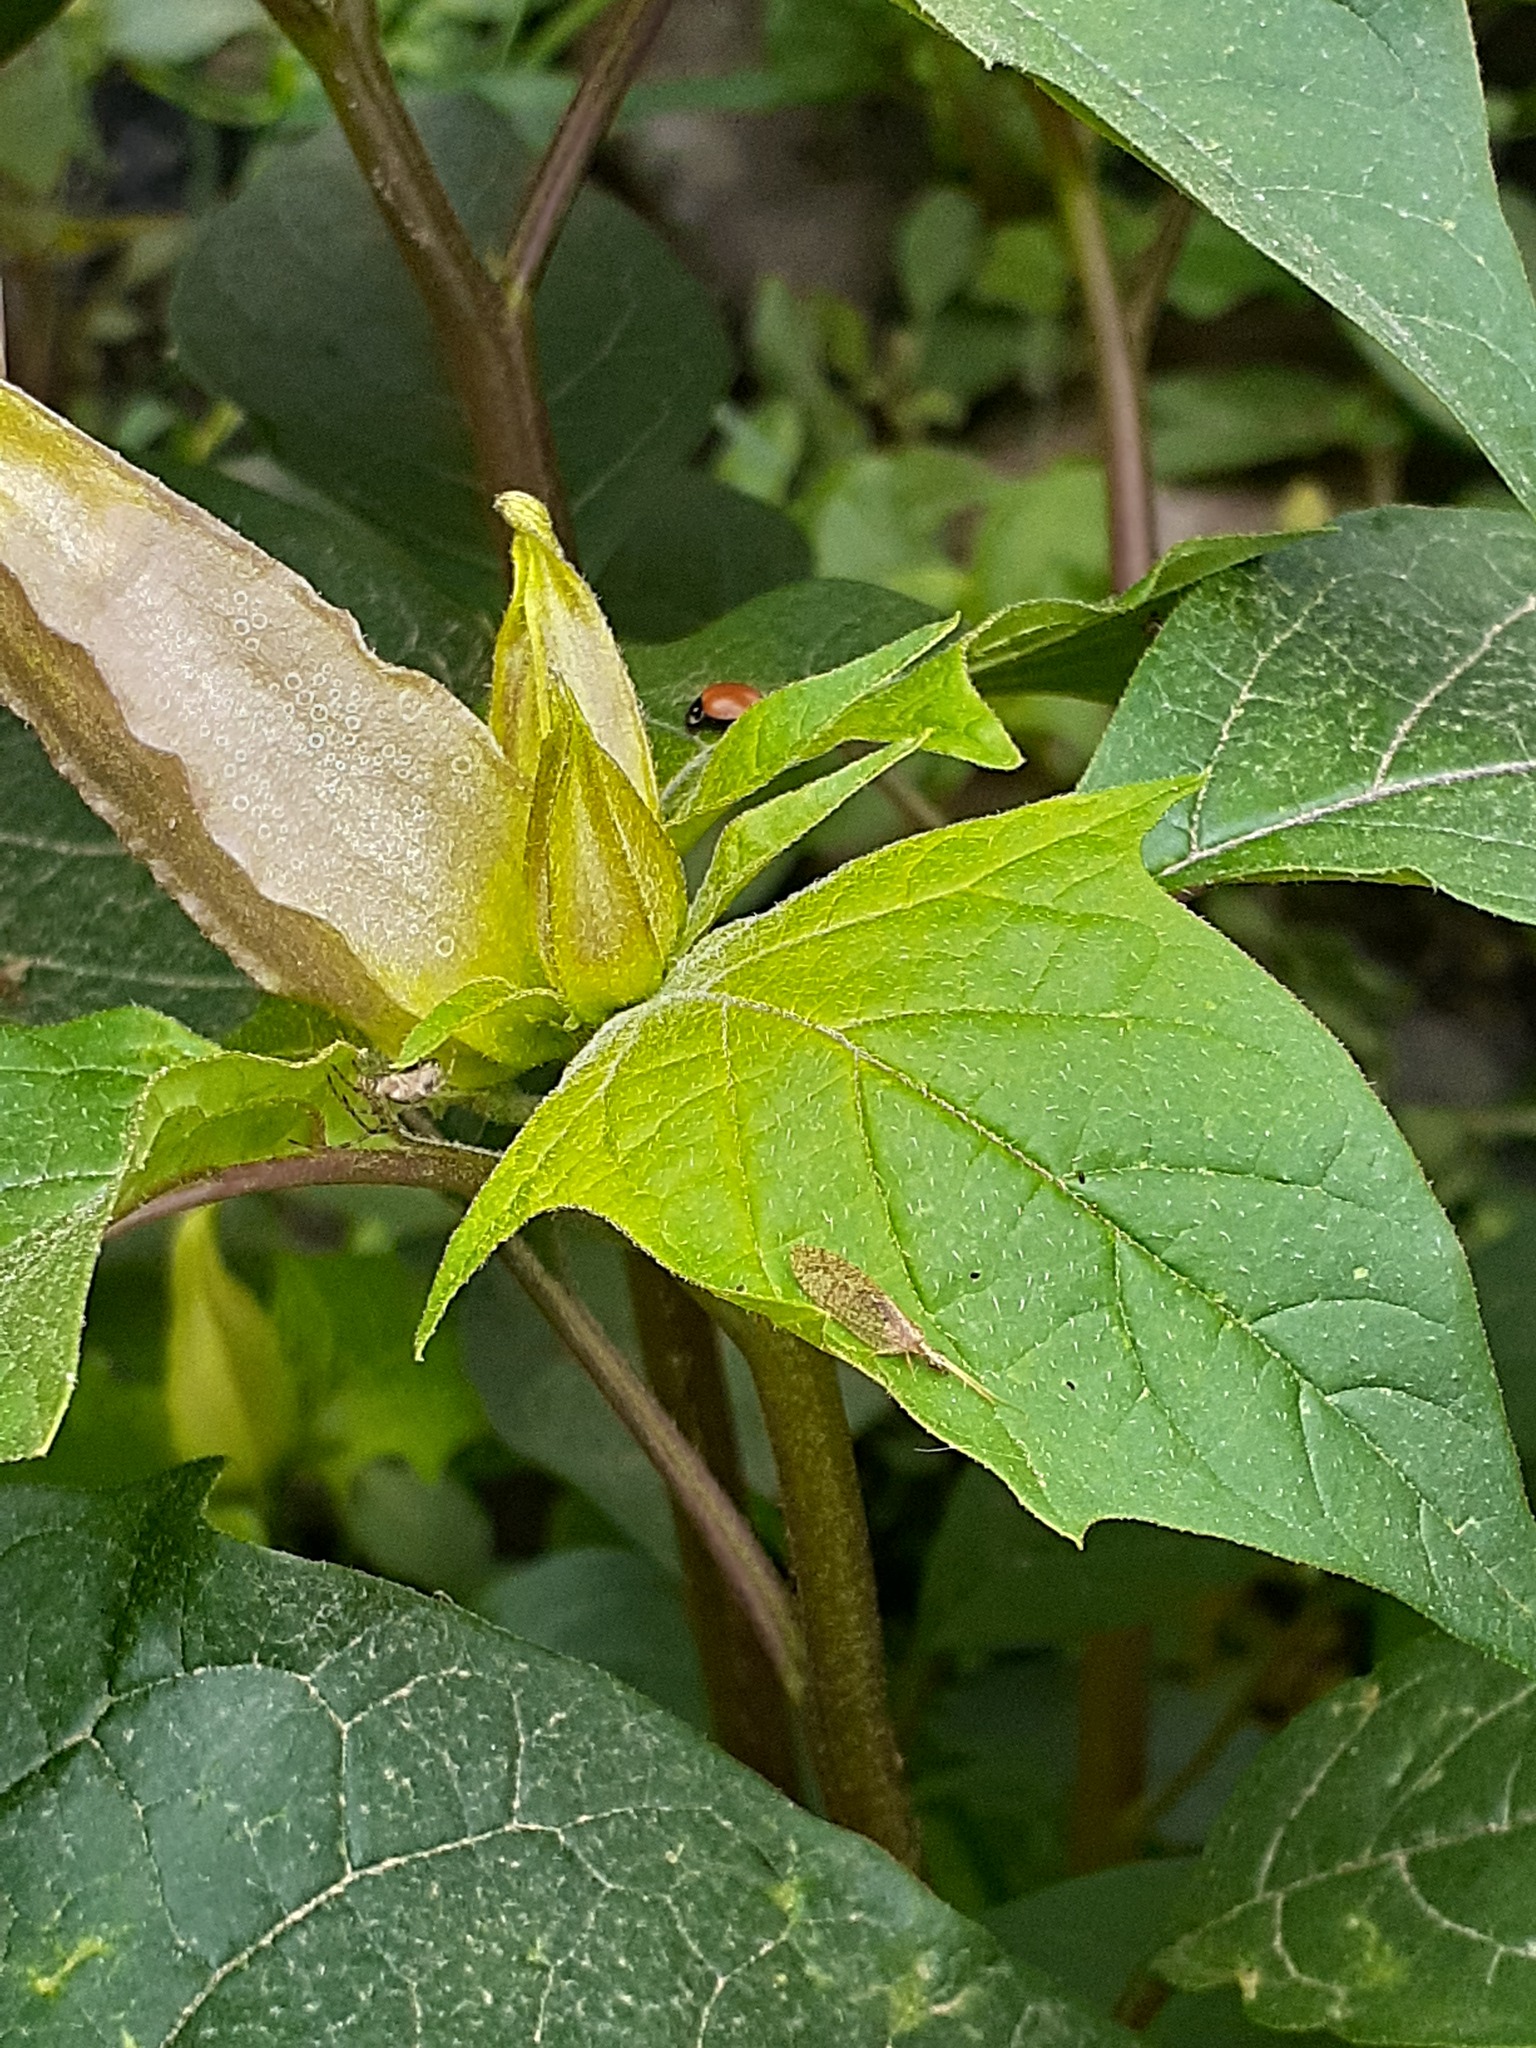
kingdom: Plantae
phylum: Tracheophyta
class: Magnoliopsida
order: Solanales
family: Solanaceae
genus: Datura
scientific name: Datura stramonium
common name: Thorn-apple
